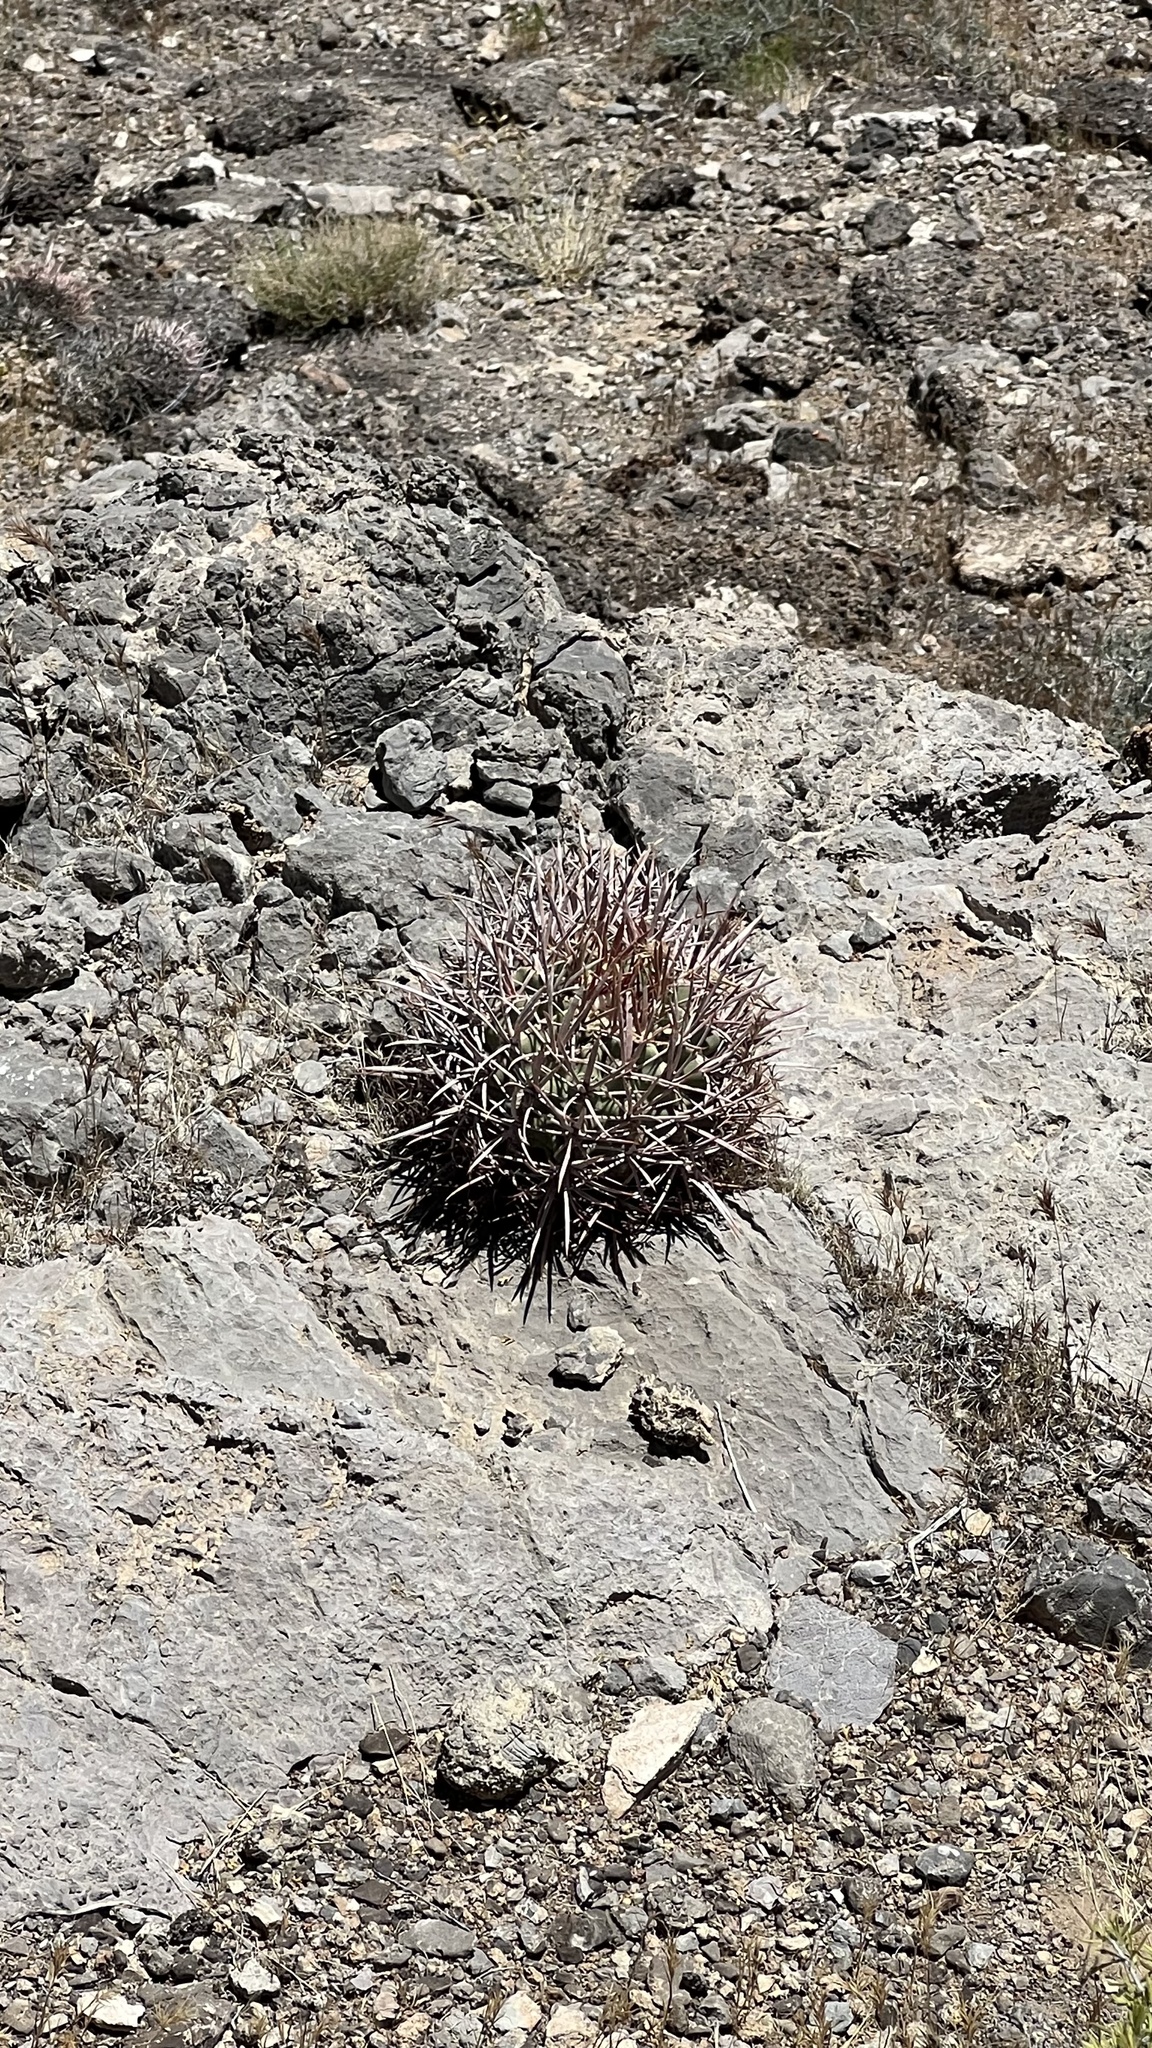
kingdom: Plantae
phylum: Tracheophyta
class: Magnoliopsida
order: Caryophyllales
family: Cactaceae
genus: Echinocactus
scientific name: Echinocactus polycephalus
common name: Cottontop cactus
